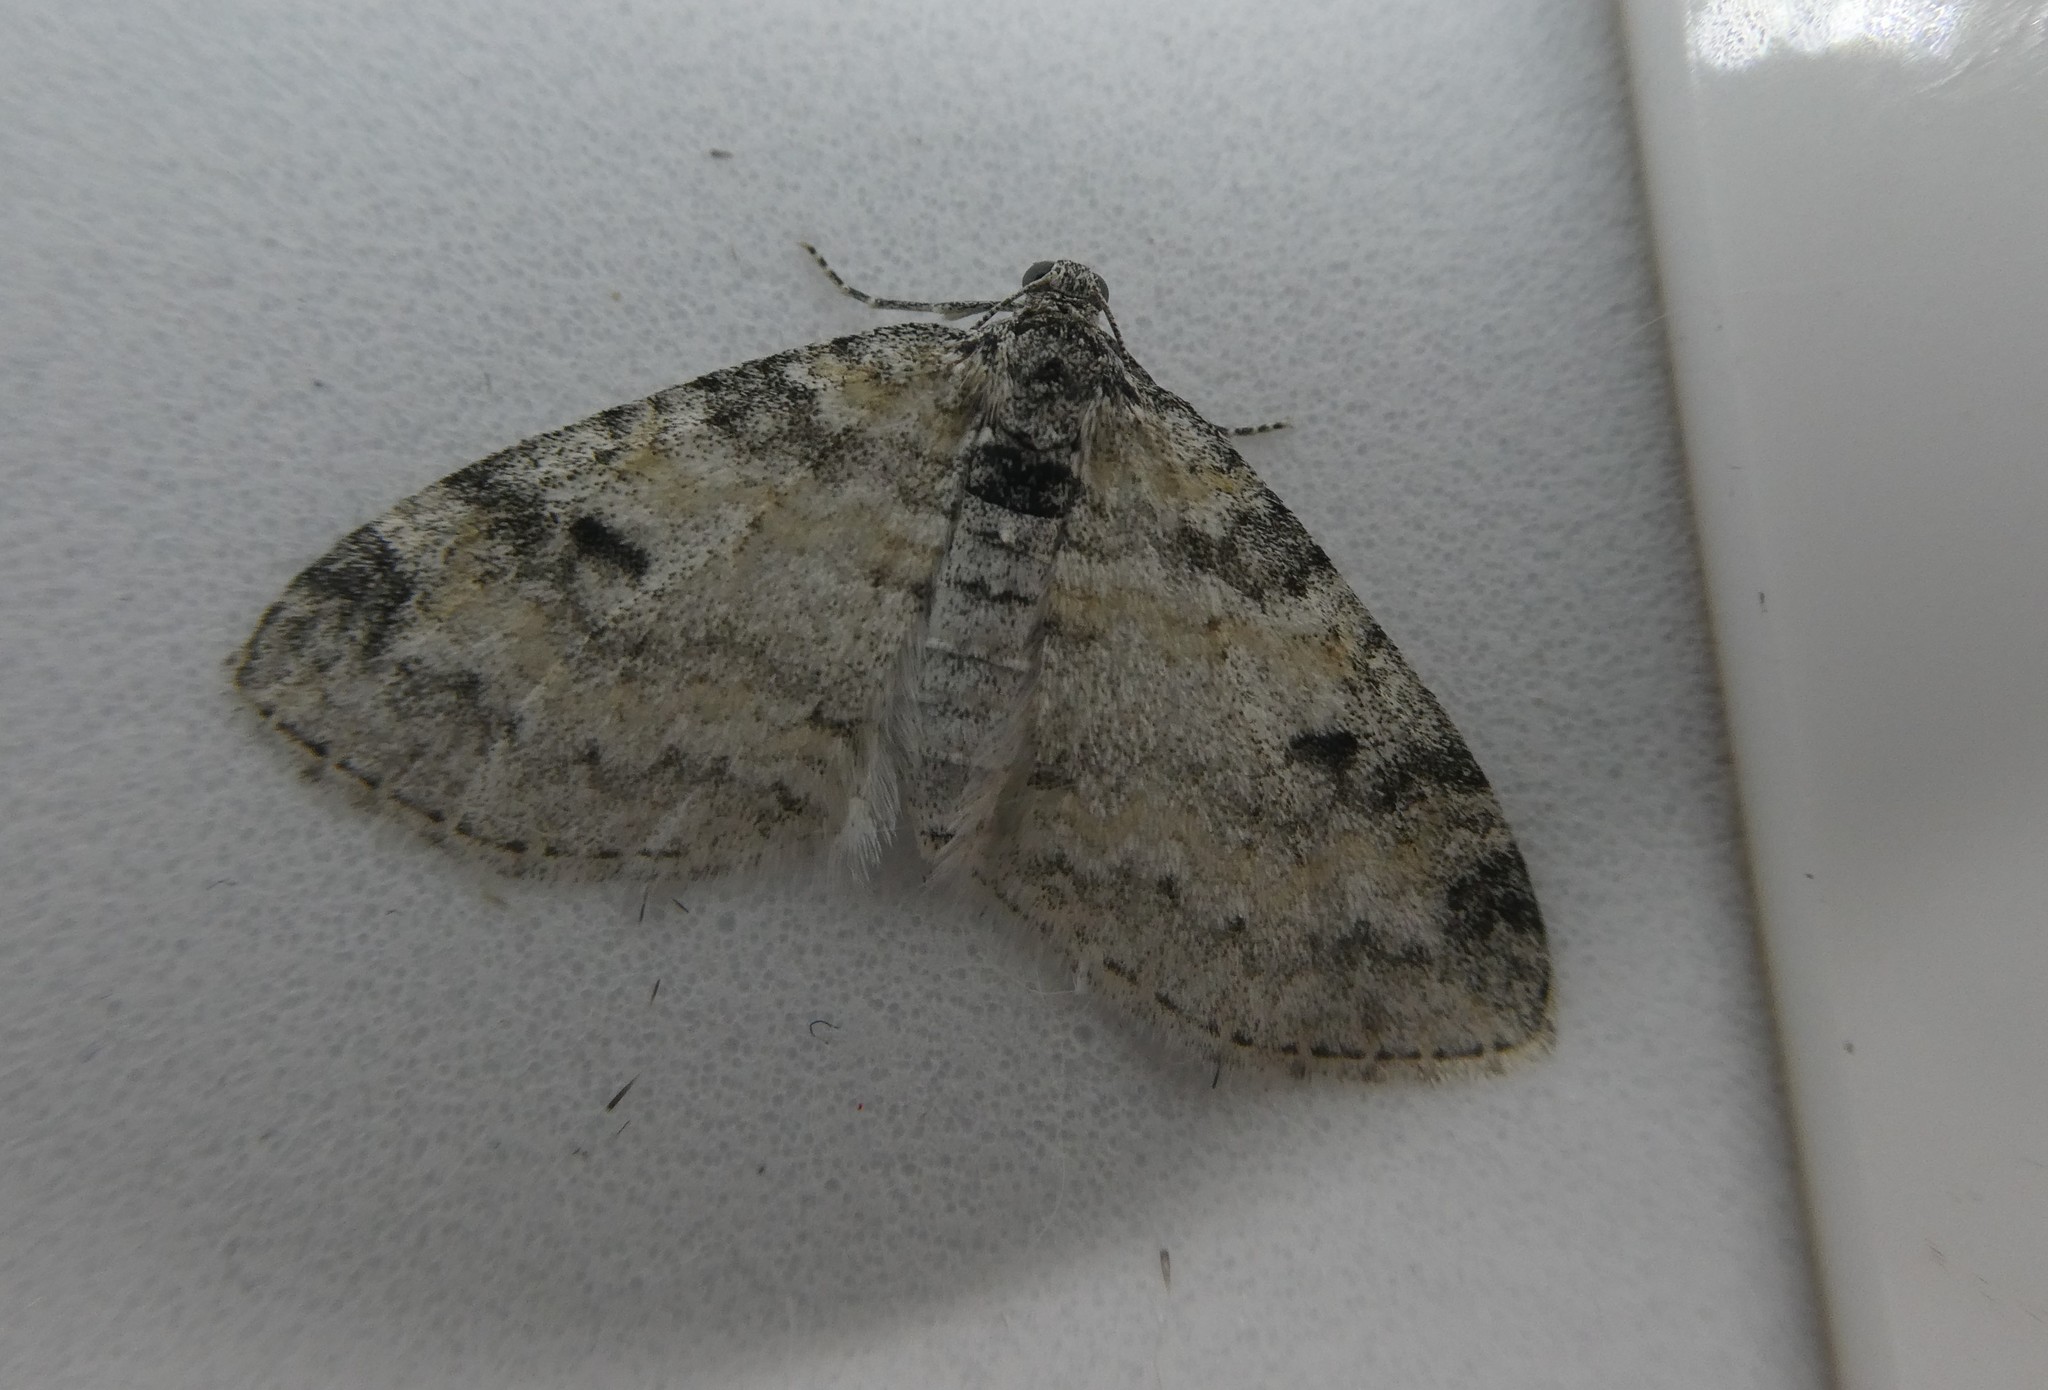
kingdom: Animalia
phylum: Arthropoda
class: Insecta
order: Lepidoptera
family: Geometridae
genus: Lobophora
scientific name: Lobophora nivigerata
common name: Powdered bigwing
